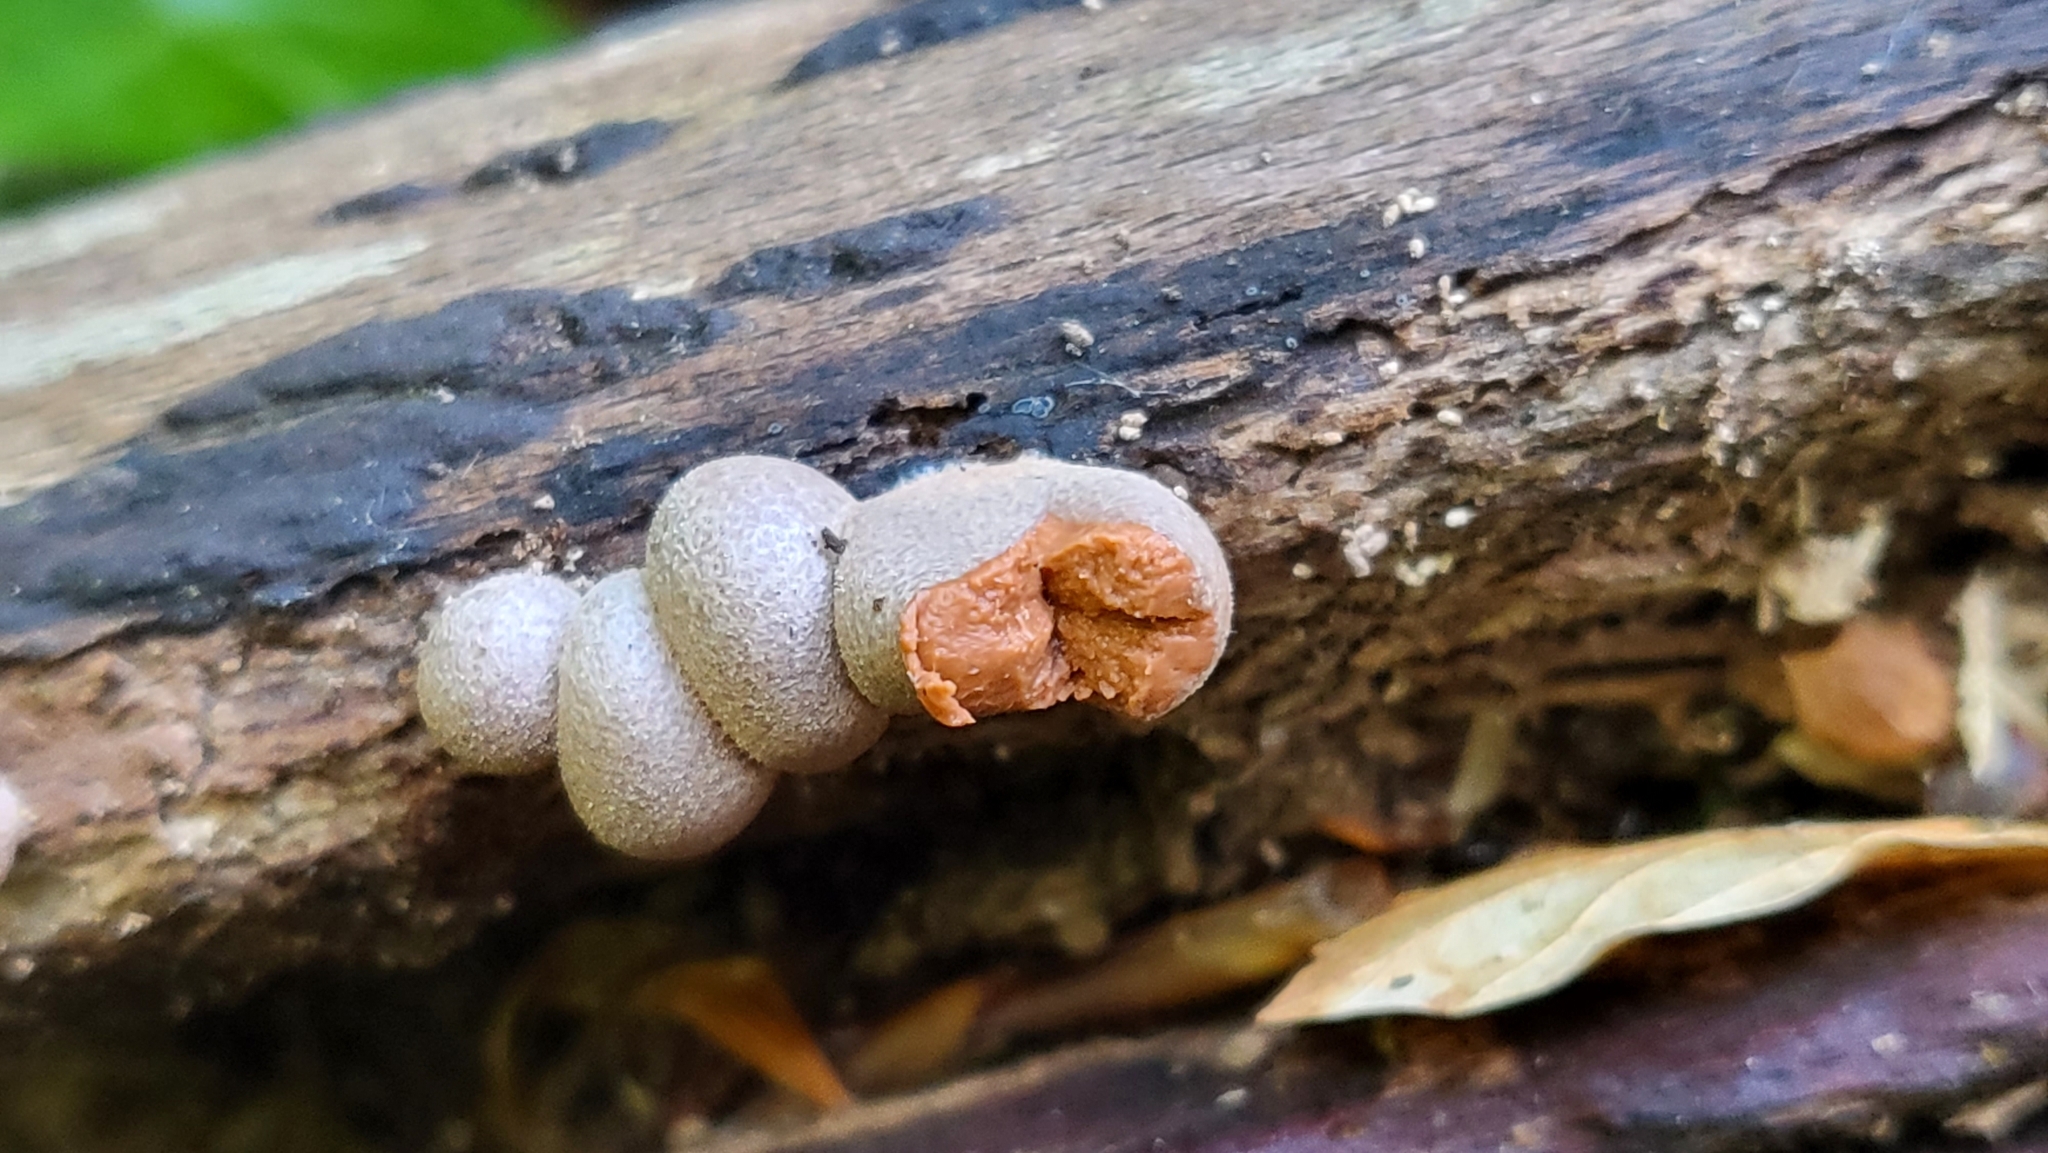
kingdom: Protozoa
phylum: Mycetozoa
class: Myxomycetes
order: Cribrariales
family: Tubiferaceae
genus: Lycogala
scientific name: Lycogala
